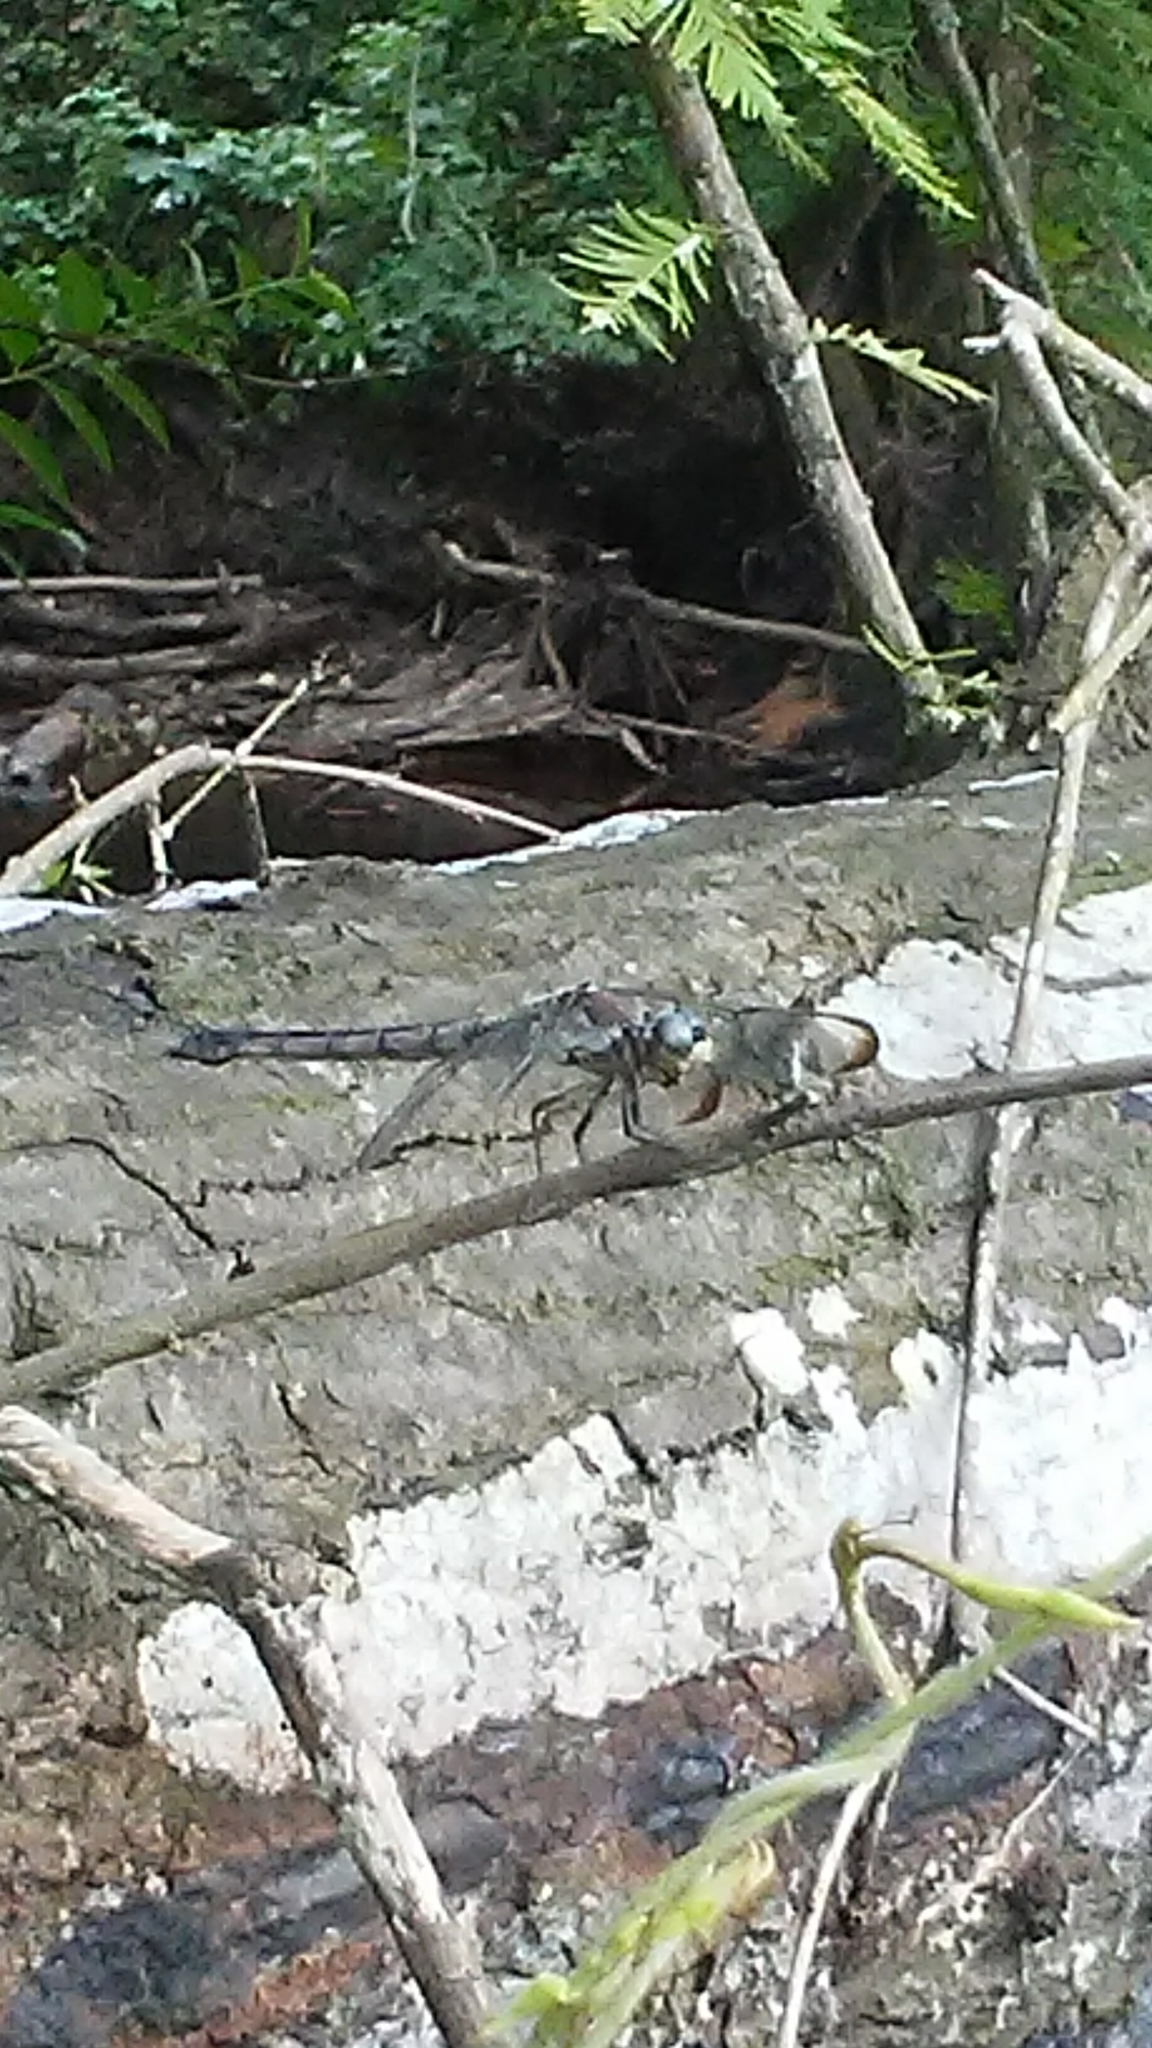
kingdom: Animalia
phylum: Arthropoda
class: Insecta
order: Odonata
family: Libellulidae
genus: Libellula
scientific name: Libellula vibrans
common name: Great blue skimmer
